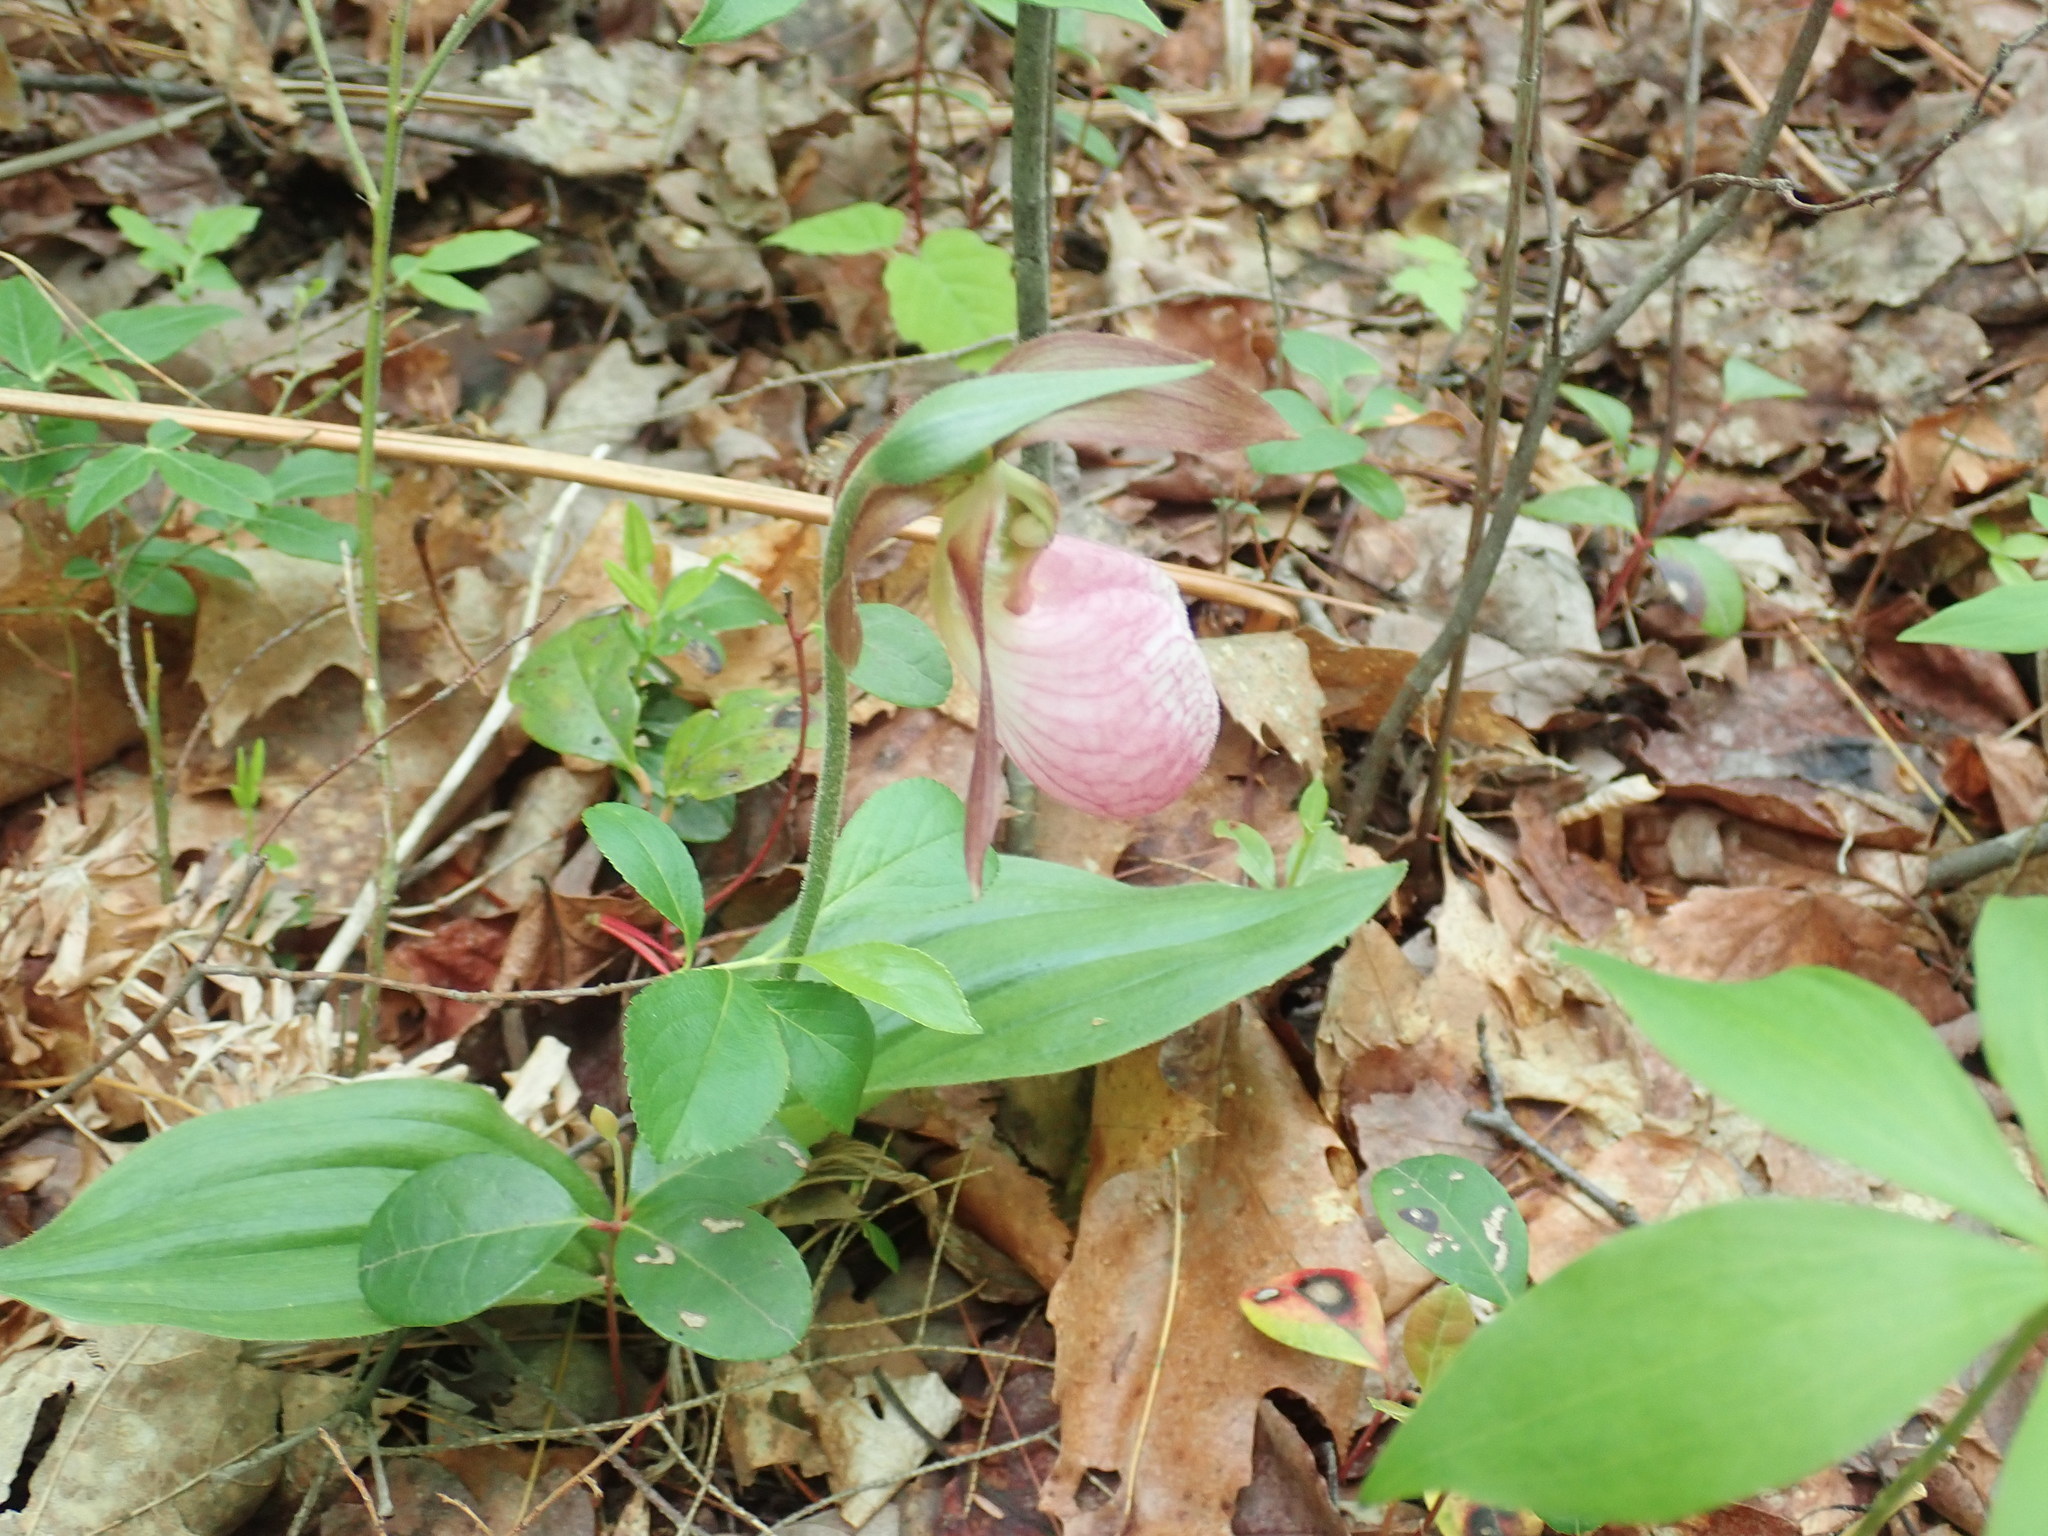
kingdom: Plantae
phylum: Tracheophyta
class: Liliopsida
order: Asparagales
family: Orchidaceae
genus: Cypripedium
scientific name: Cypripedium acaule
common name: Pink lady's-slipper
